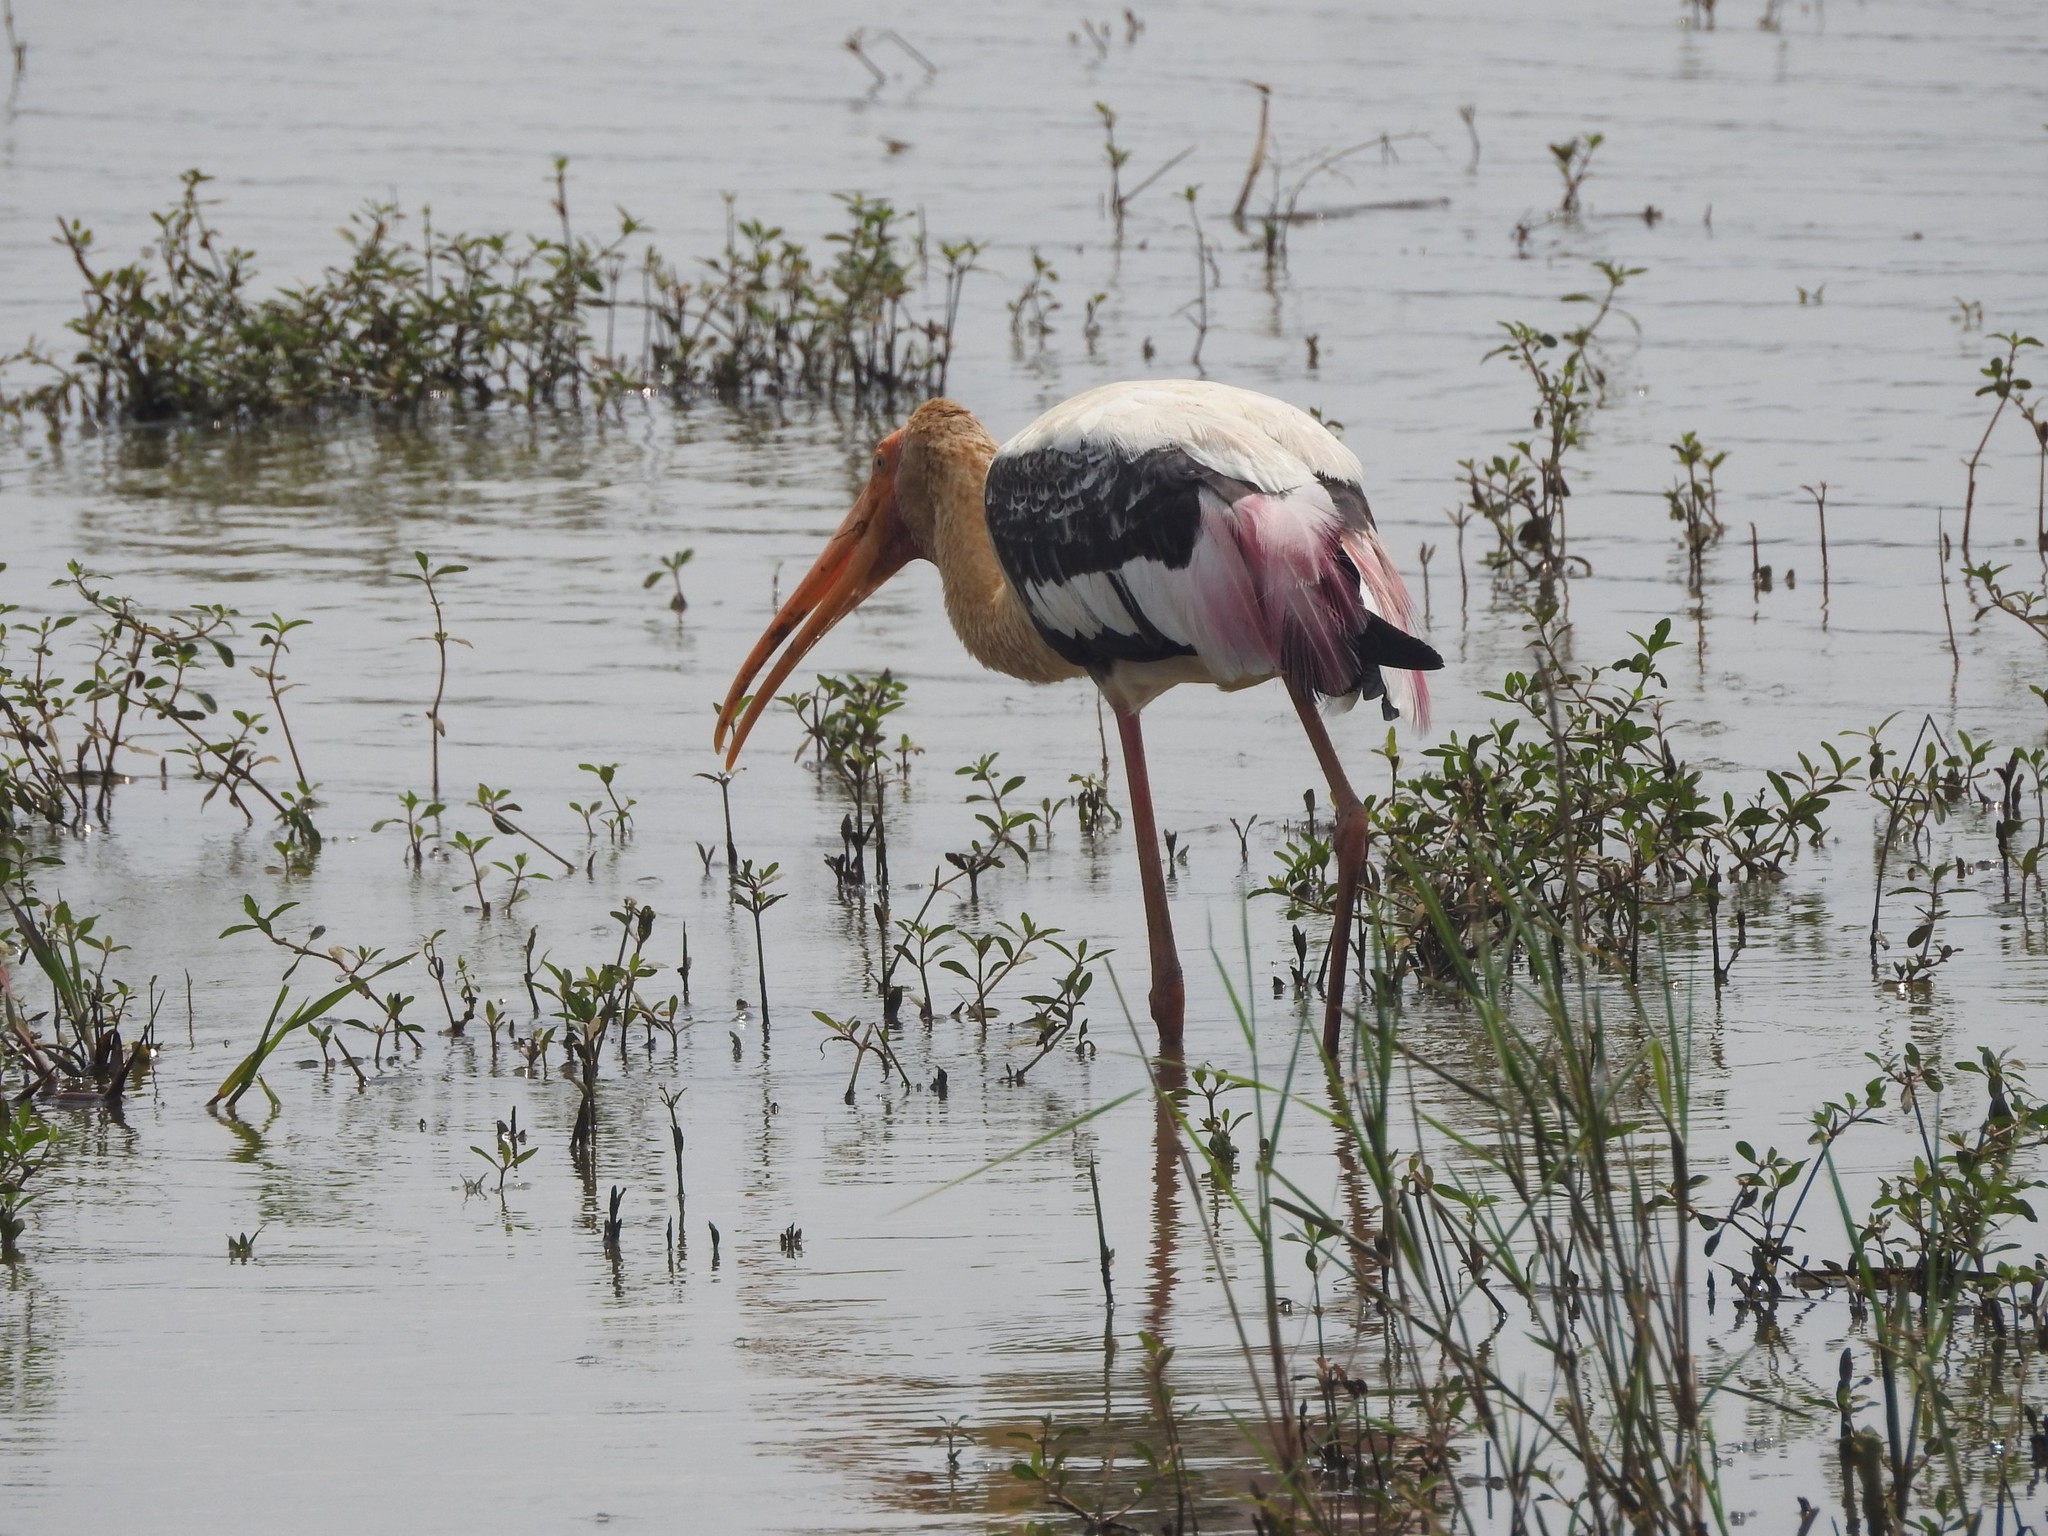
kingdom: Animalia
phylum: Chordata
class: Aves
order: Ciconiiformes
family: Ciconiidae
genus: Mycteria
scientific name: Mycteria leucocephala
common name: Painted stork
